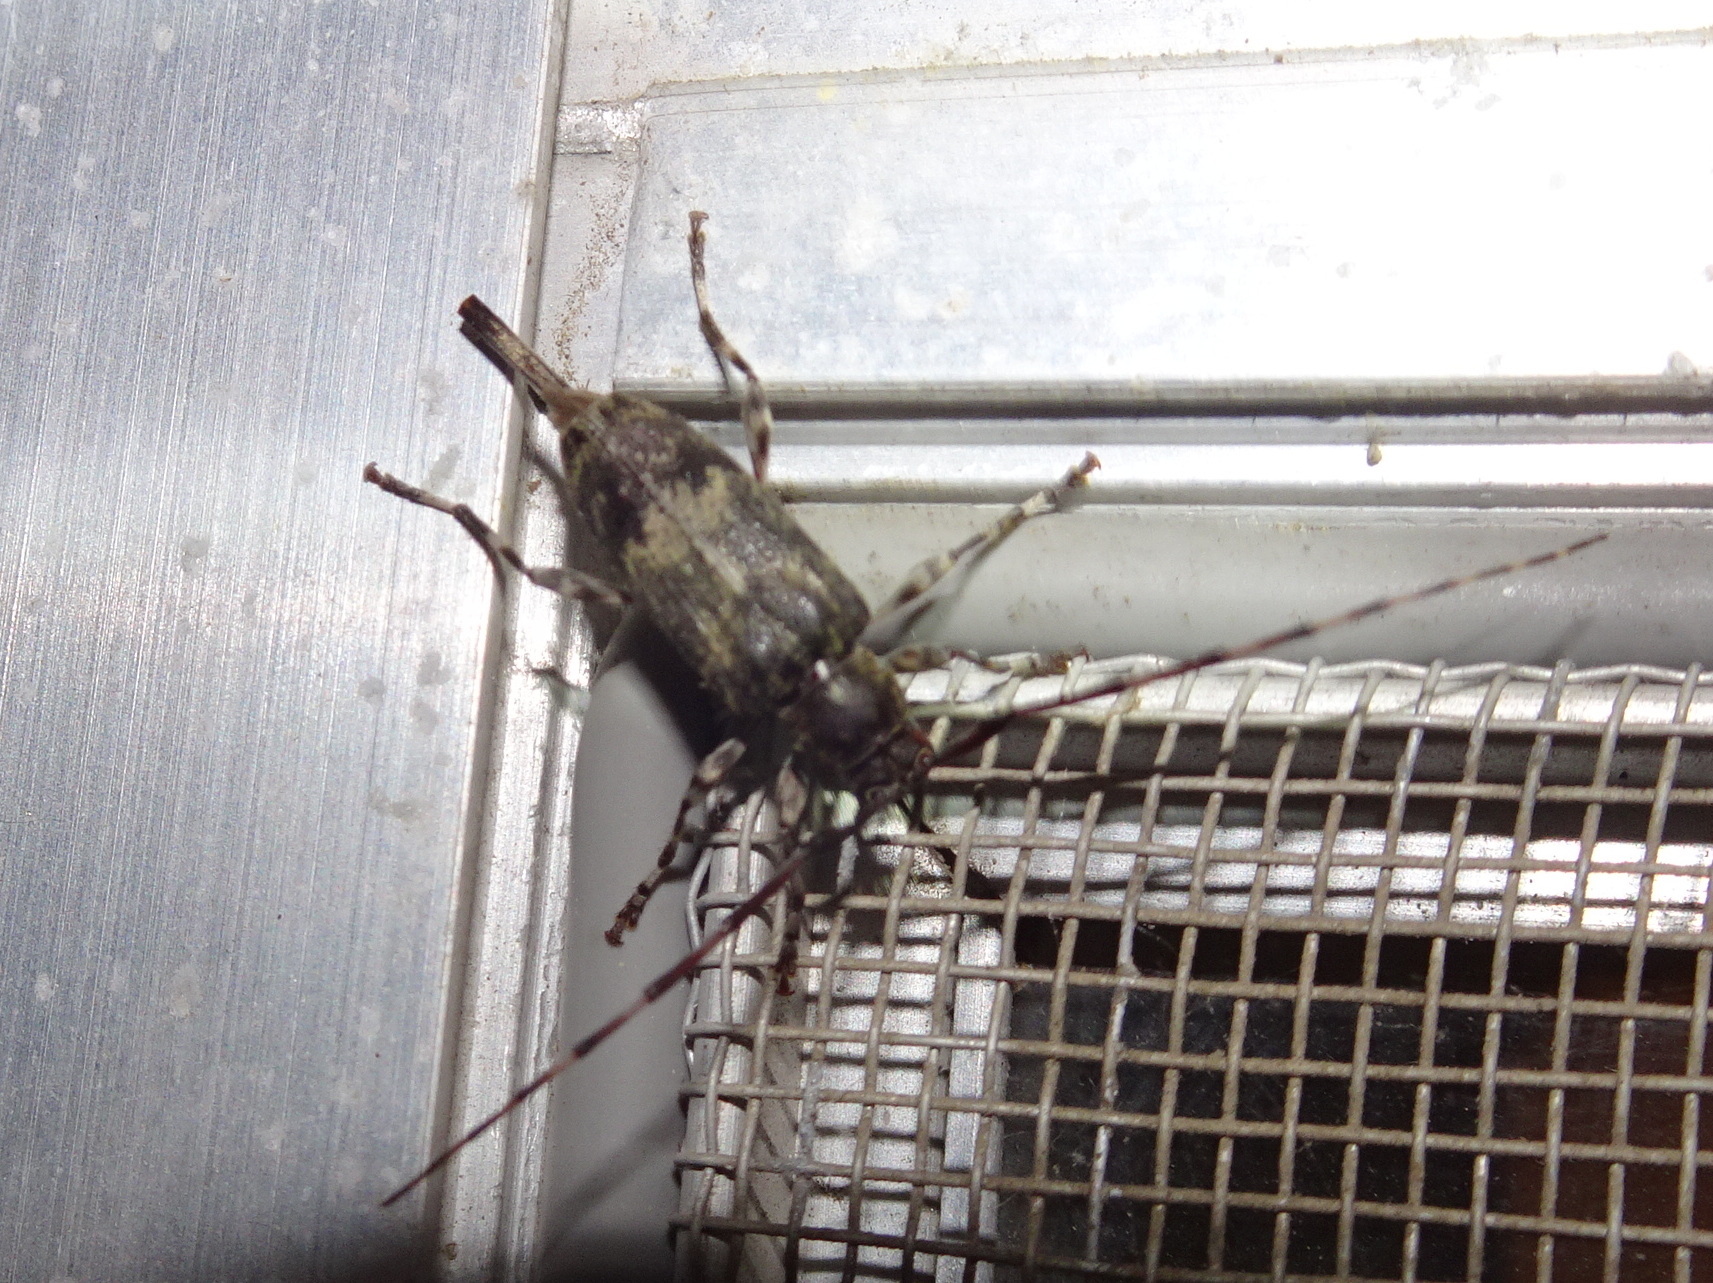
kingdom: Animalia
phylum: Arthropoda
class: Insecta
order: Coleoptera
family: Cerambycidae
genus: Graphisurus
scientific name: Graphisurus fasciatus
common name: Banded graphisurus
